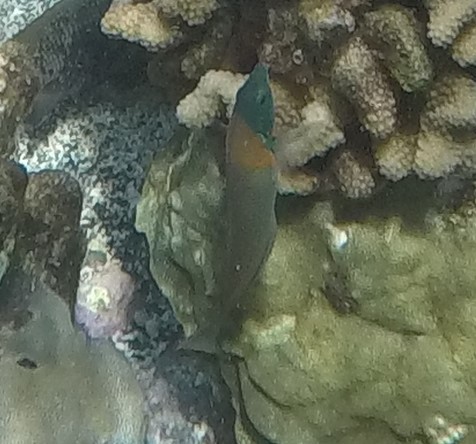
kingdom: Animalia
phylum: Chordata
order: Perciformes
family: Labridae
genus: Thalassoma
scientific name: Thalassoma duperrey
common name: Saddle wrasse
